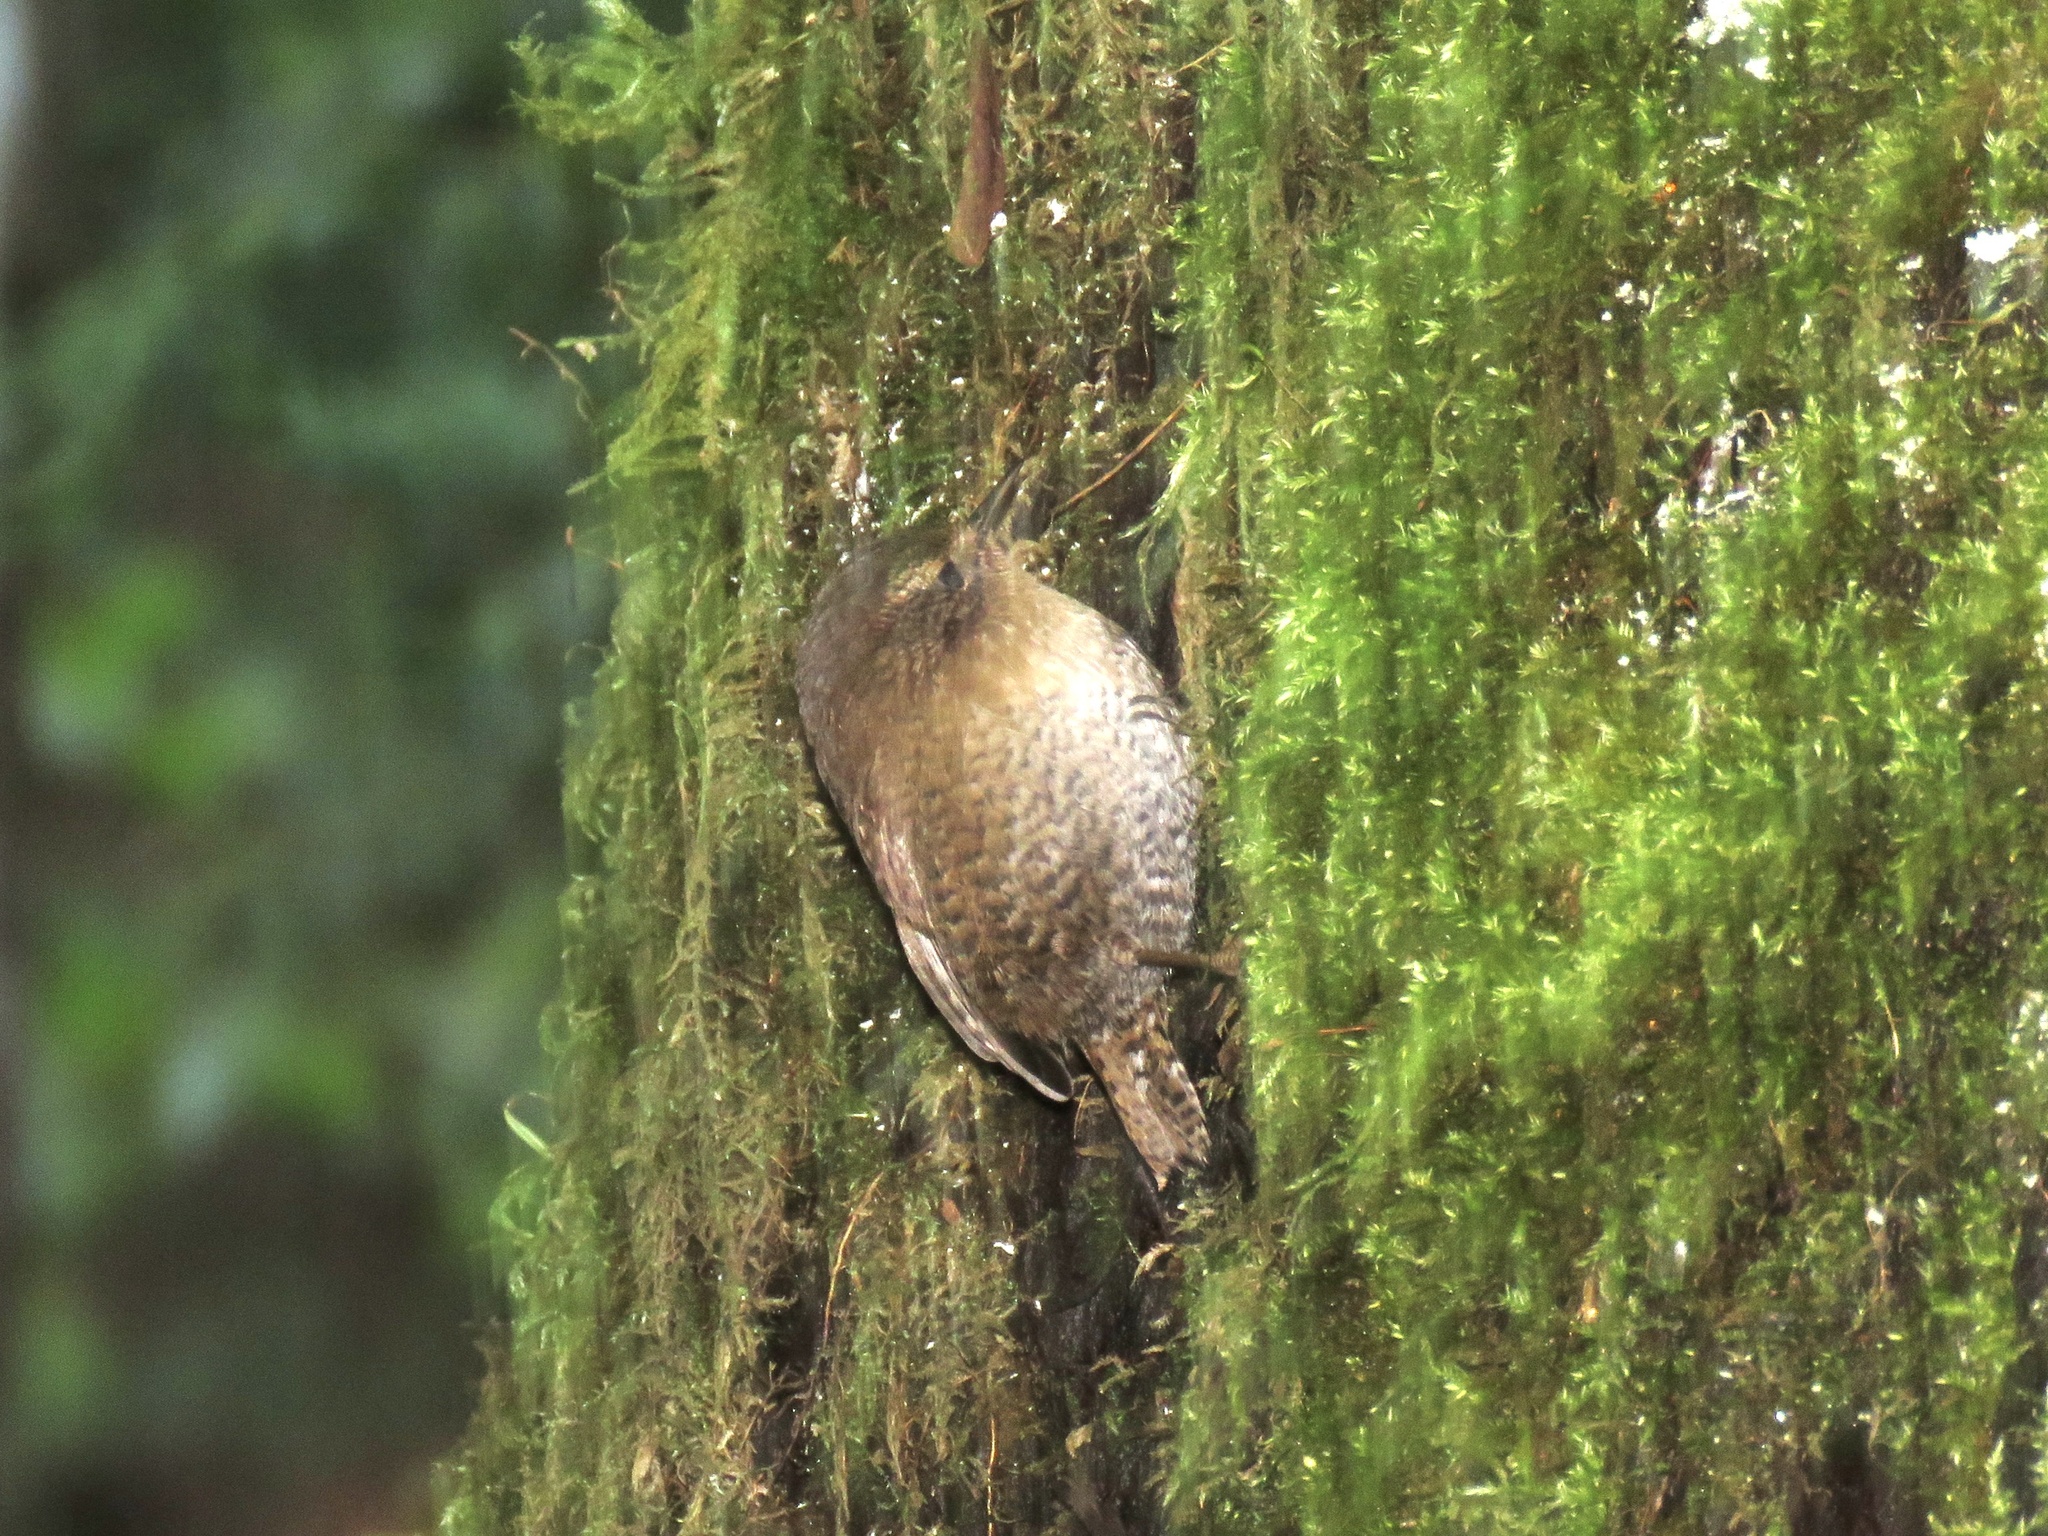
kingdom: Animalia
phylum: Chordata
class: Aves
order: Passeriformes
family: Troglodytidae
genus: Troglodytes
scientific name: Troglodytes pacificus
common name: Pacific wren
